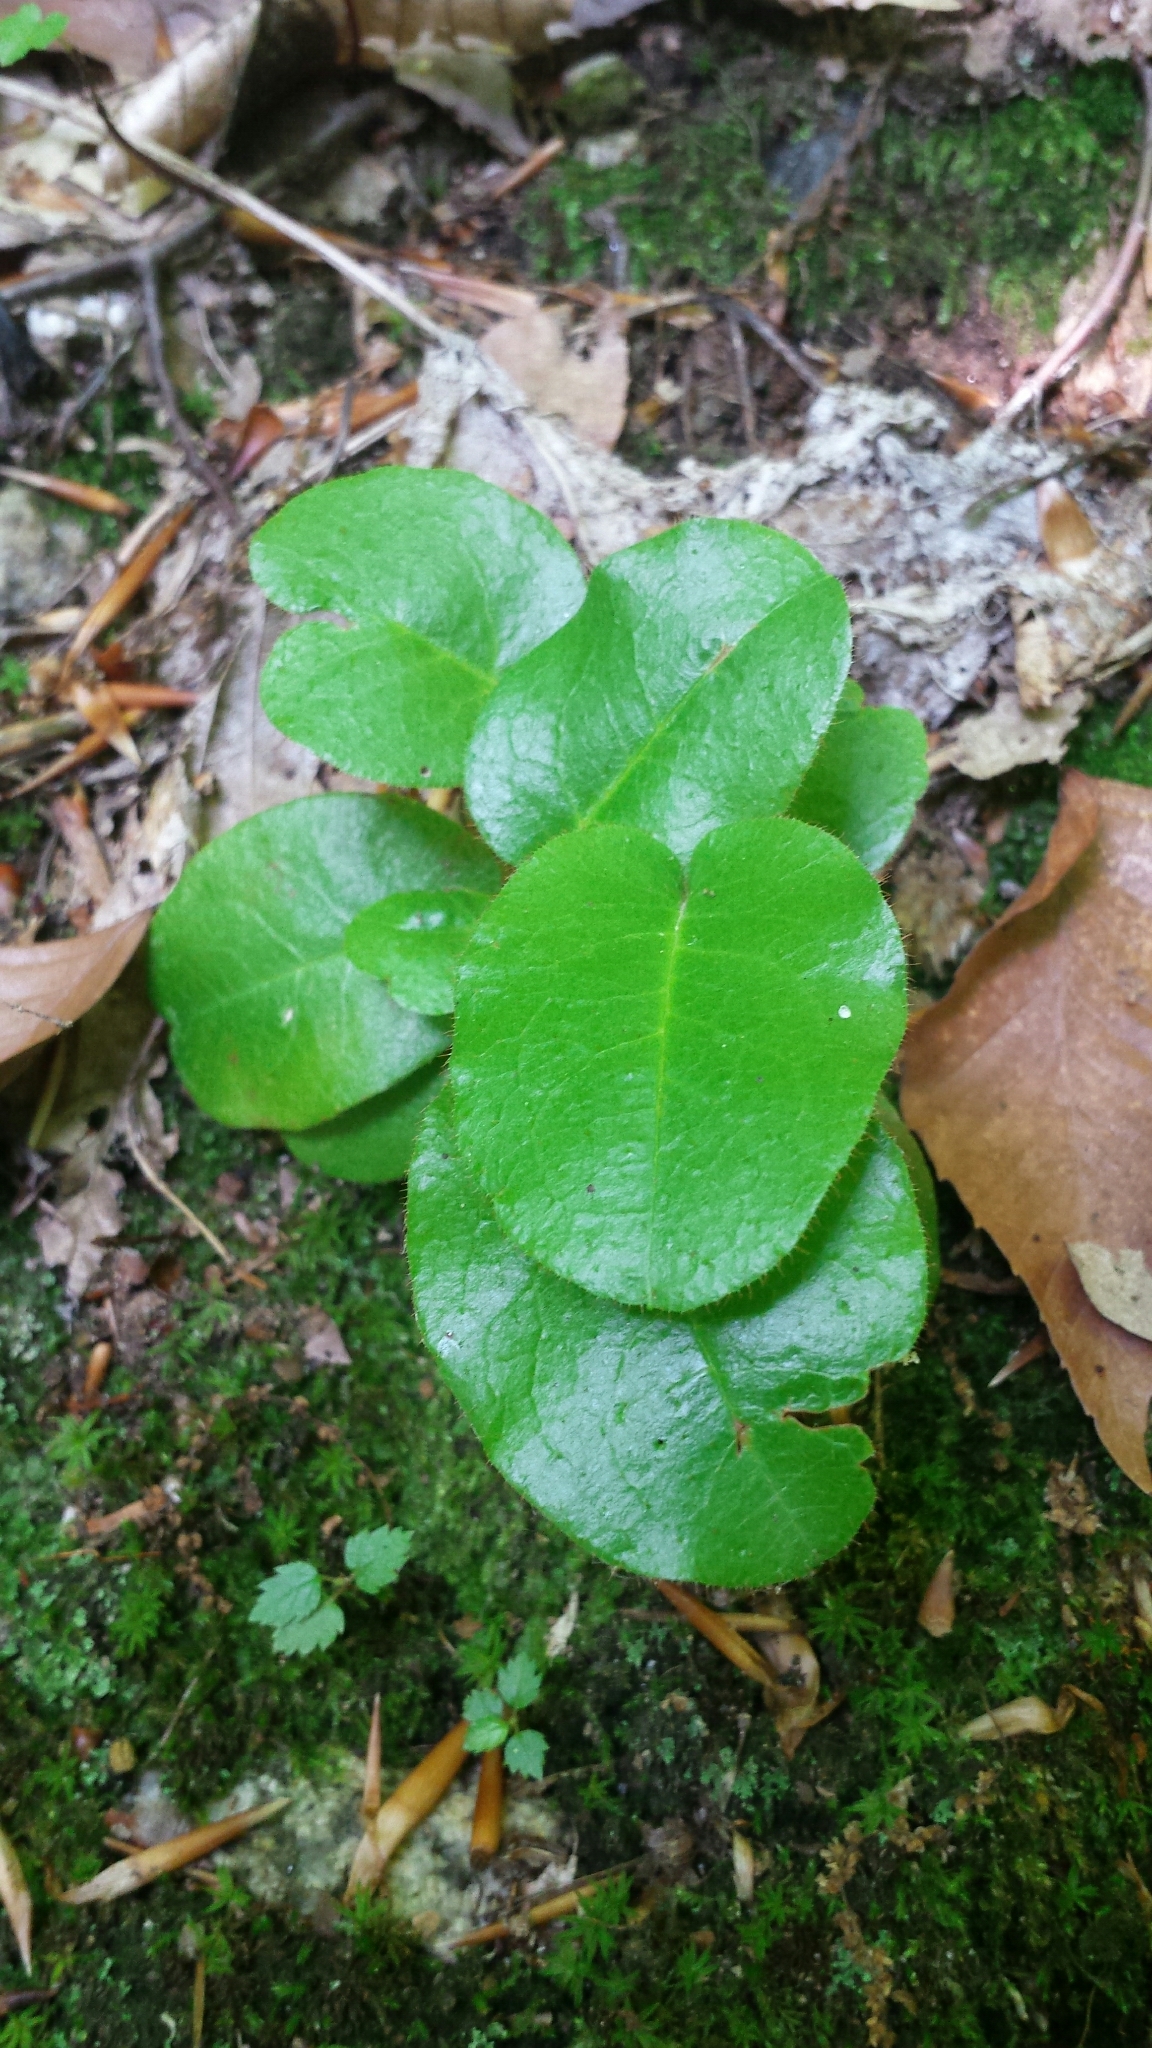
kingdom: Plantae
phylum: Tracheophyta
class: Magnoliopsida
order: Ericales
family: Ericaceae
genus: Epigaea
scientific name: Epigaea repens
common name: Gravelroot
